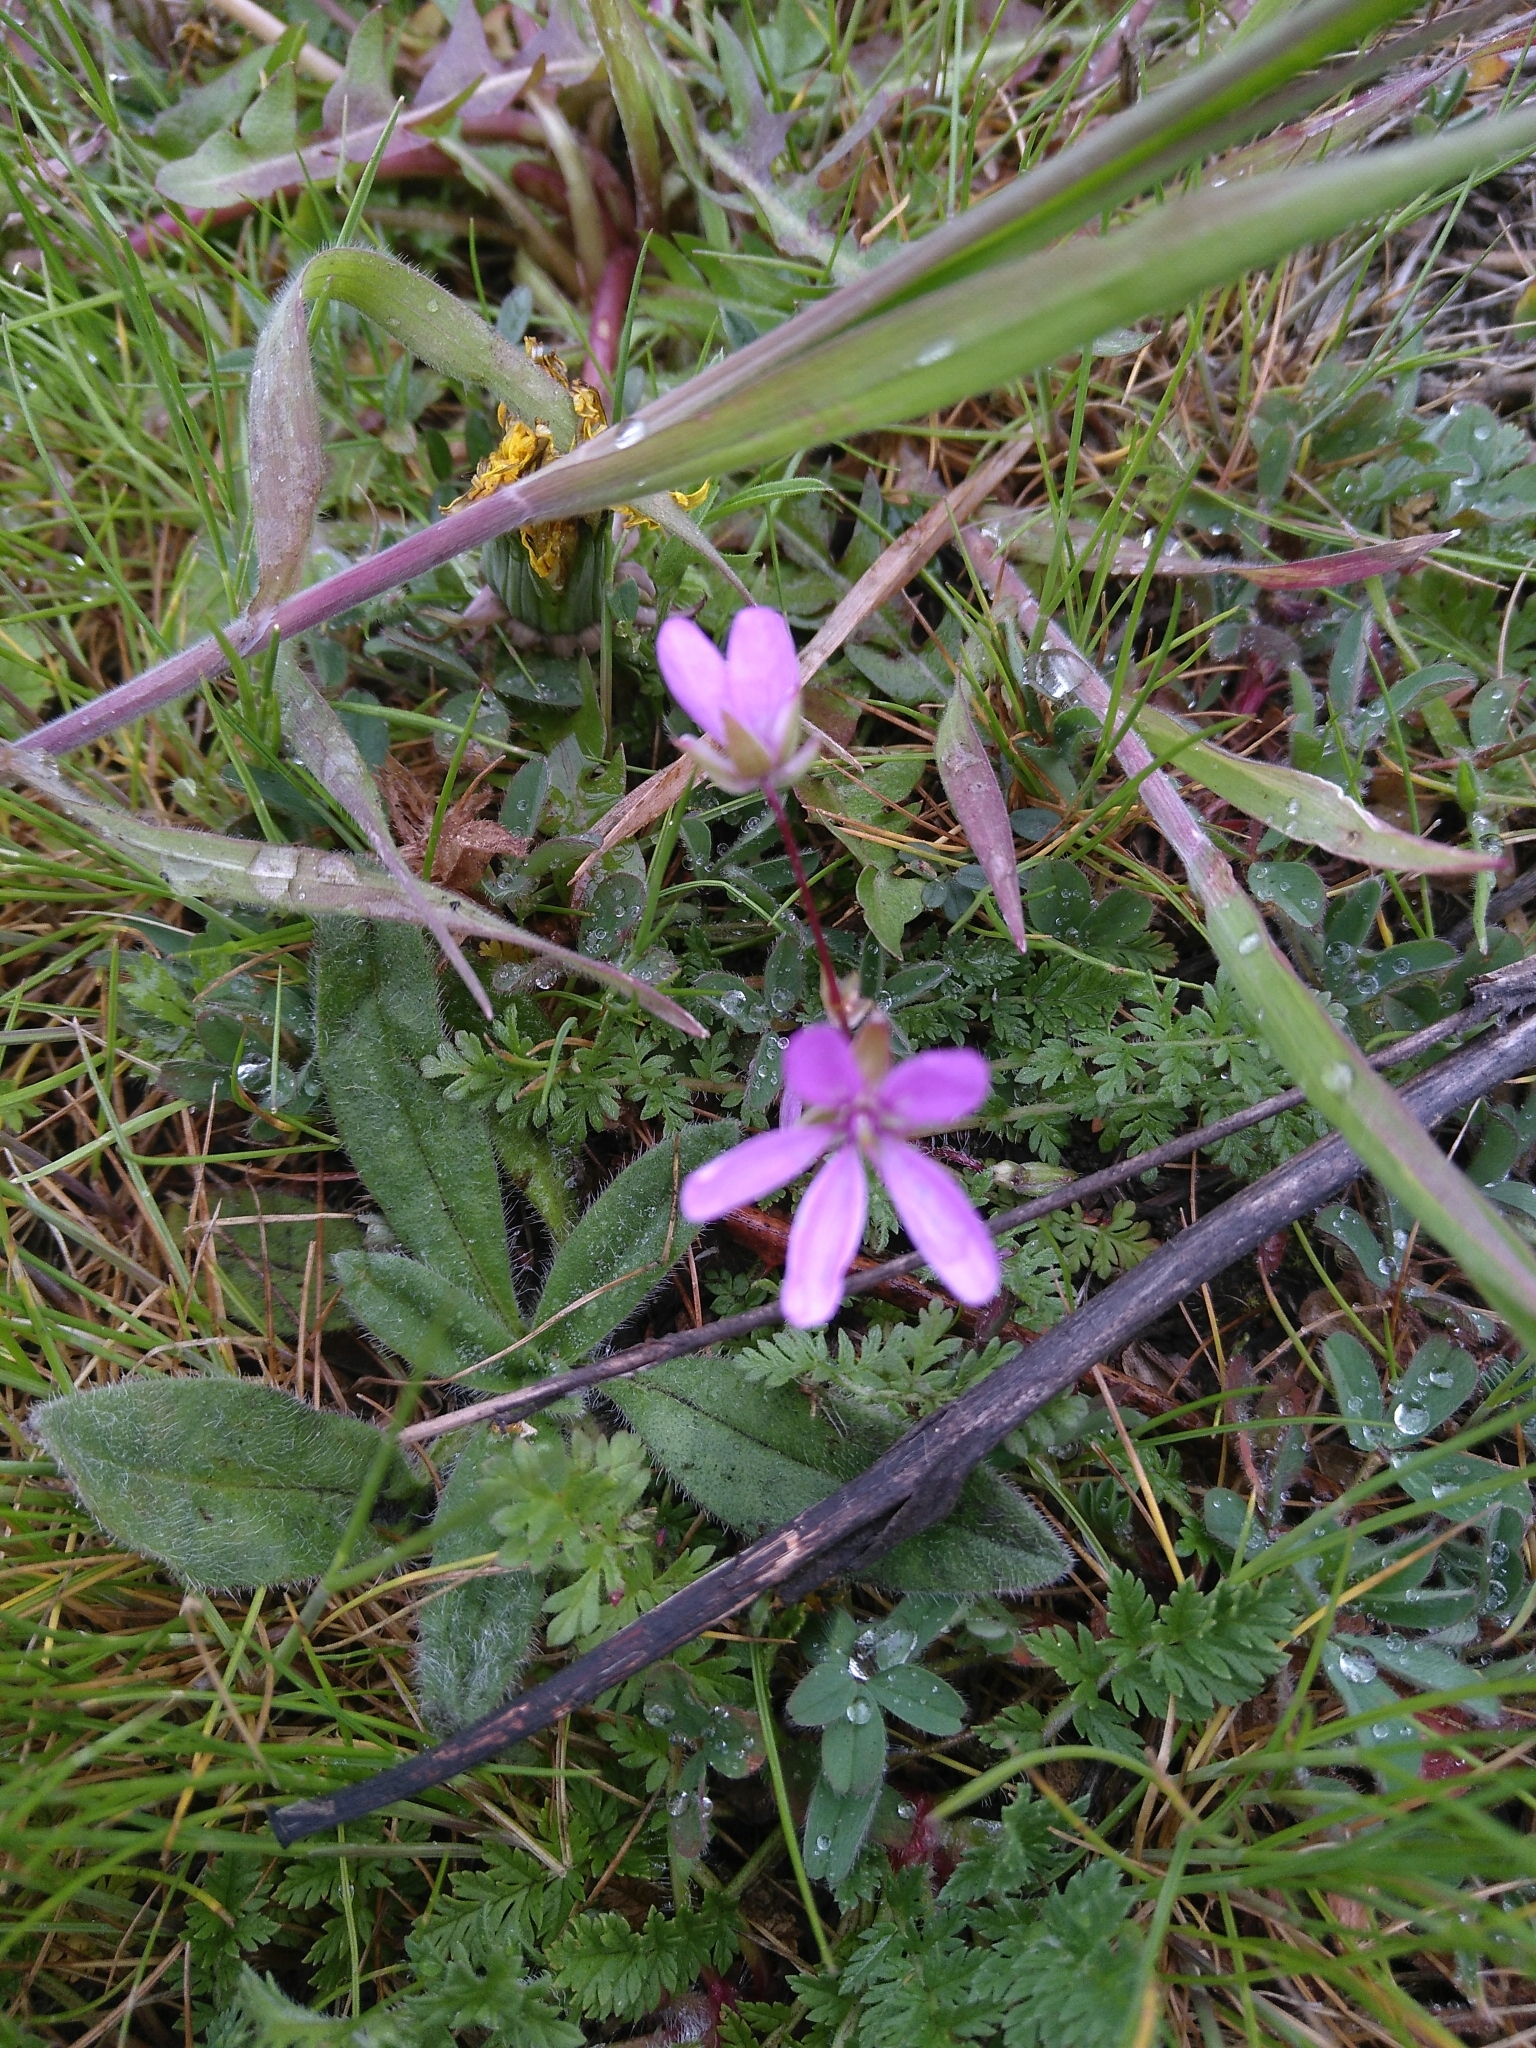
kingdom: Plantae
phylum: Tracheophyta
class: Magnoliopsida
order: Geraniales
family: Geraniaceae
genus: Erodium
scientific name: Erodium cicutarium
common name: Common stork's-bill
